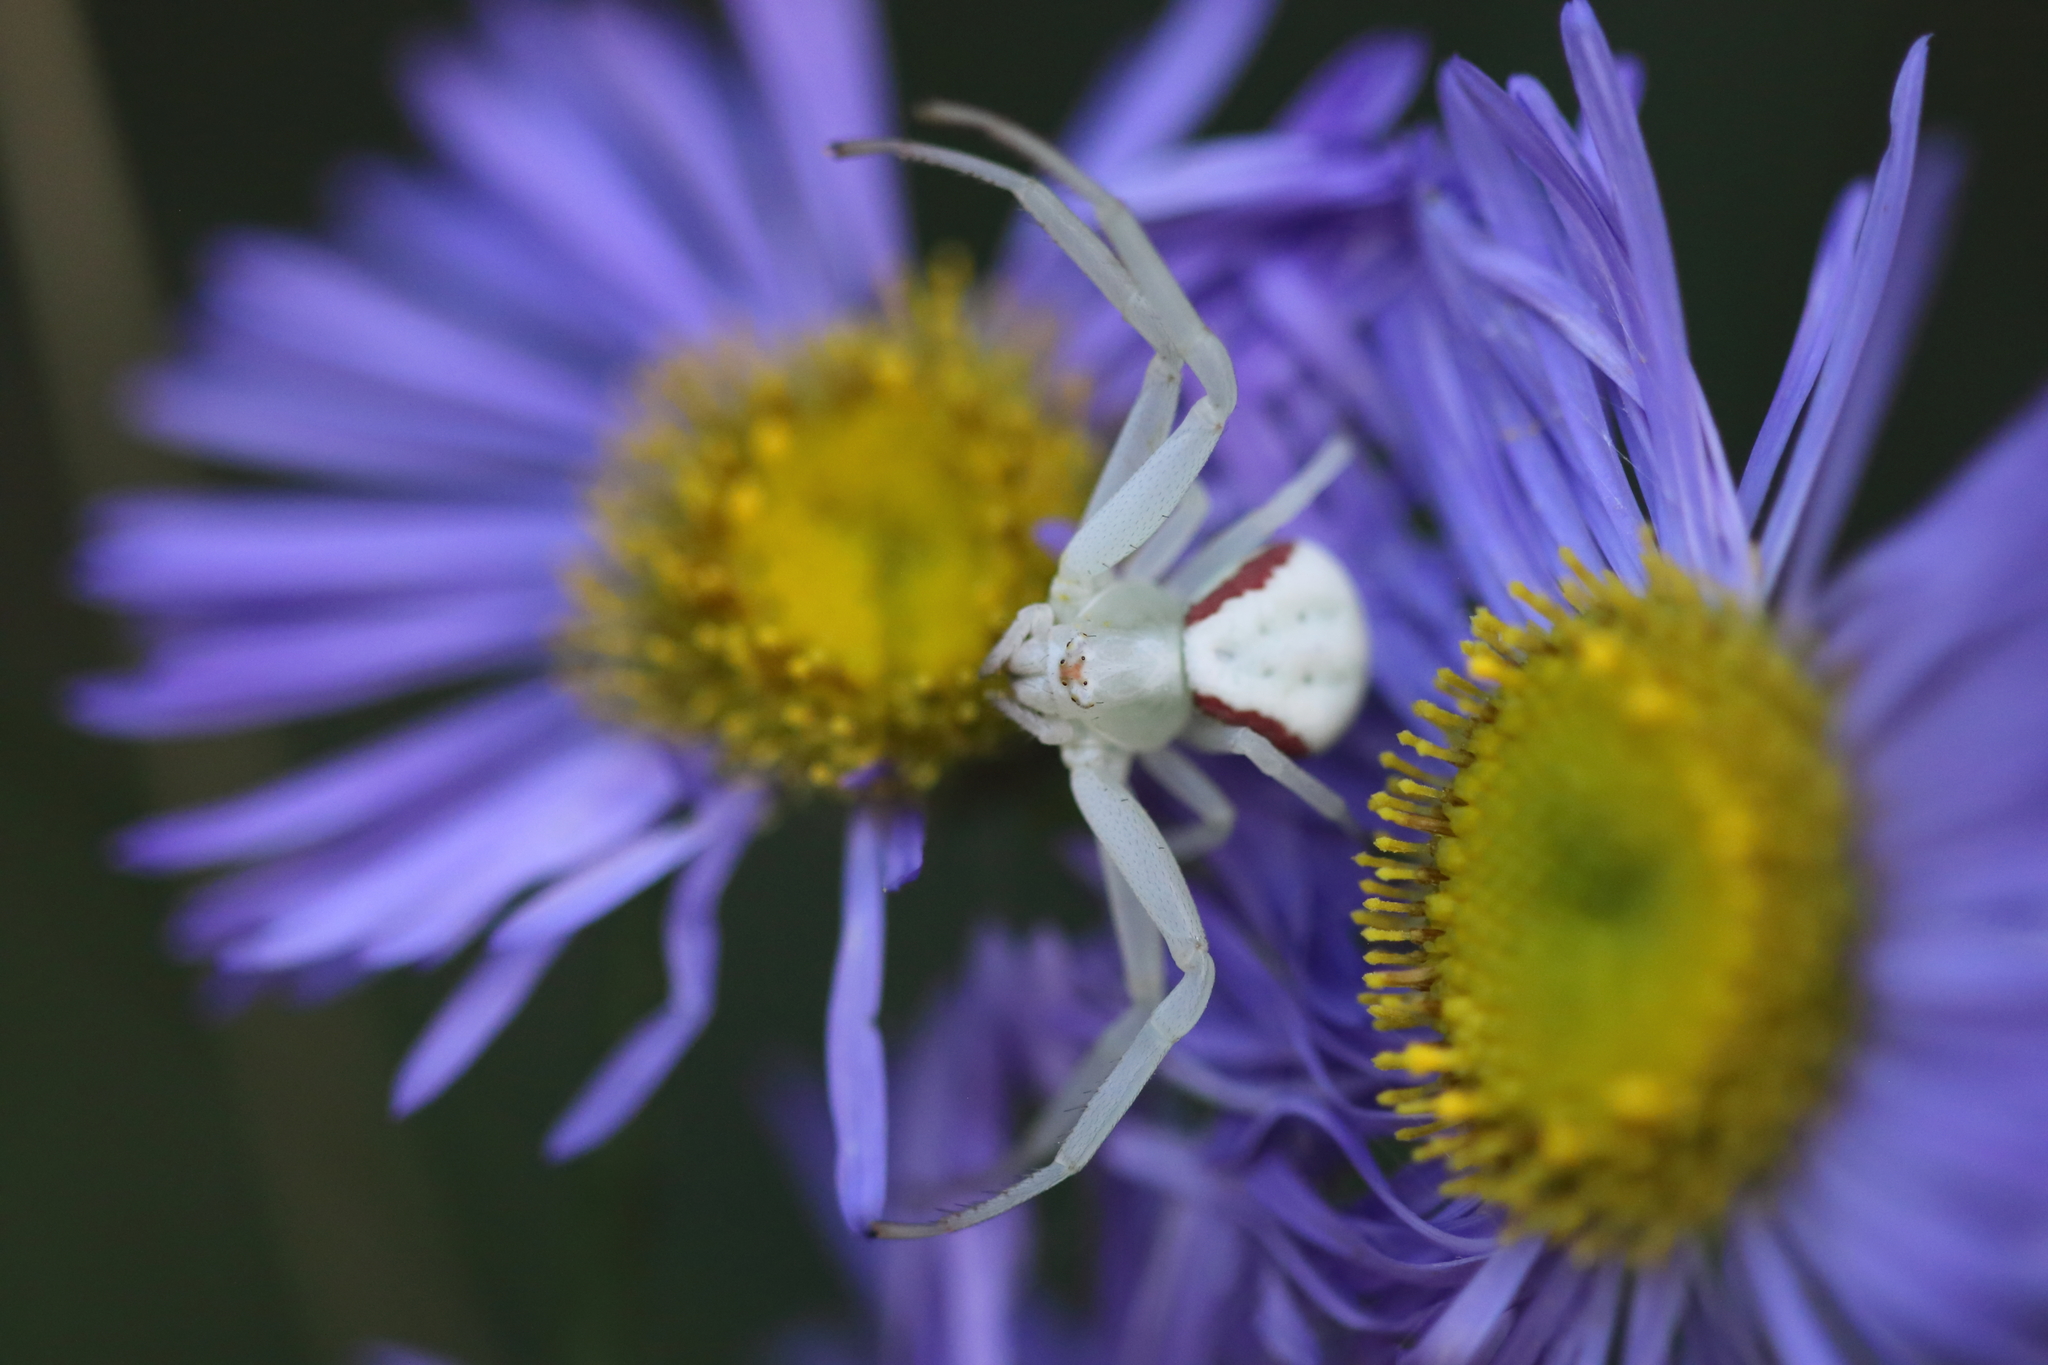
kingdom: Animalia
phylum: Arthropoda
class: Arachnida
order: Araneae
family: Thomisidae
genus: Misumena
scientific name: Misumena vatia
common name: Goldenrod crab spider
